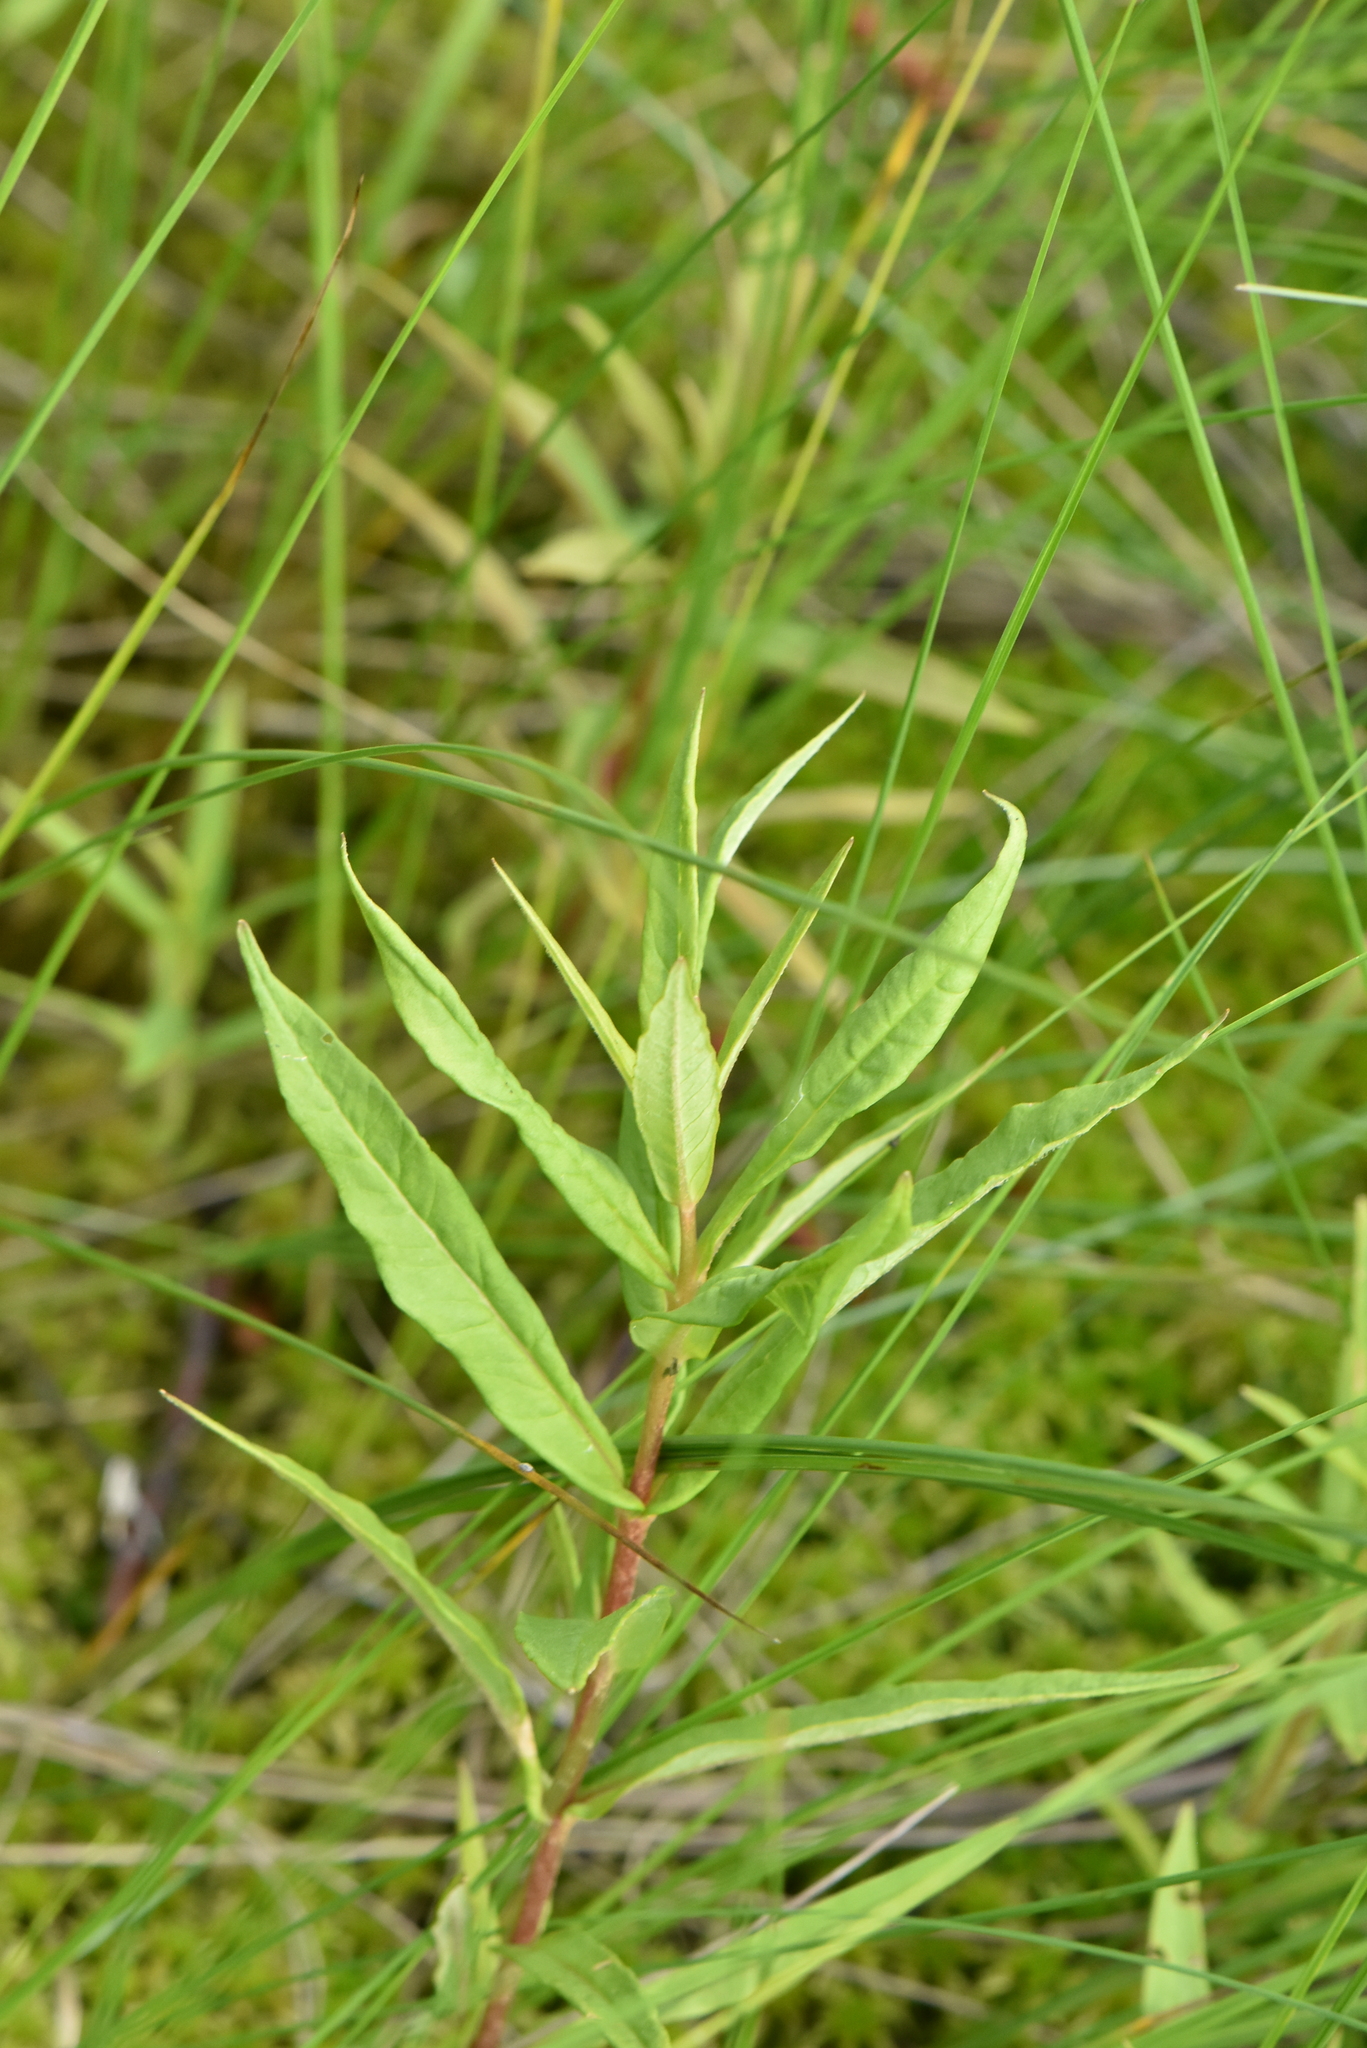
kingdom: Plantae
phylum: Tracheophyta
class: Magnoliopsida
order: Ericales
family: Primulaceae
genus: Lysimachia
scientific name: Lysimachia thyrsiflora
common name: Tufted loosestrife
